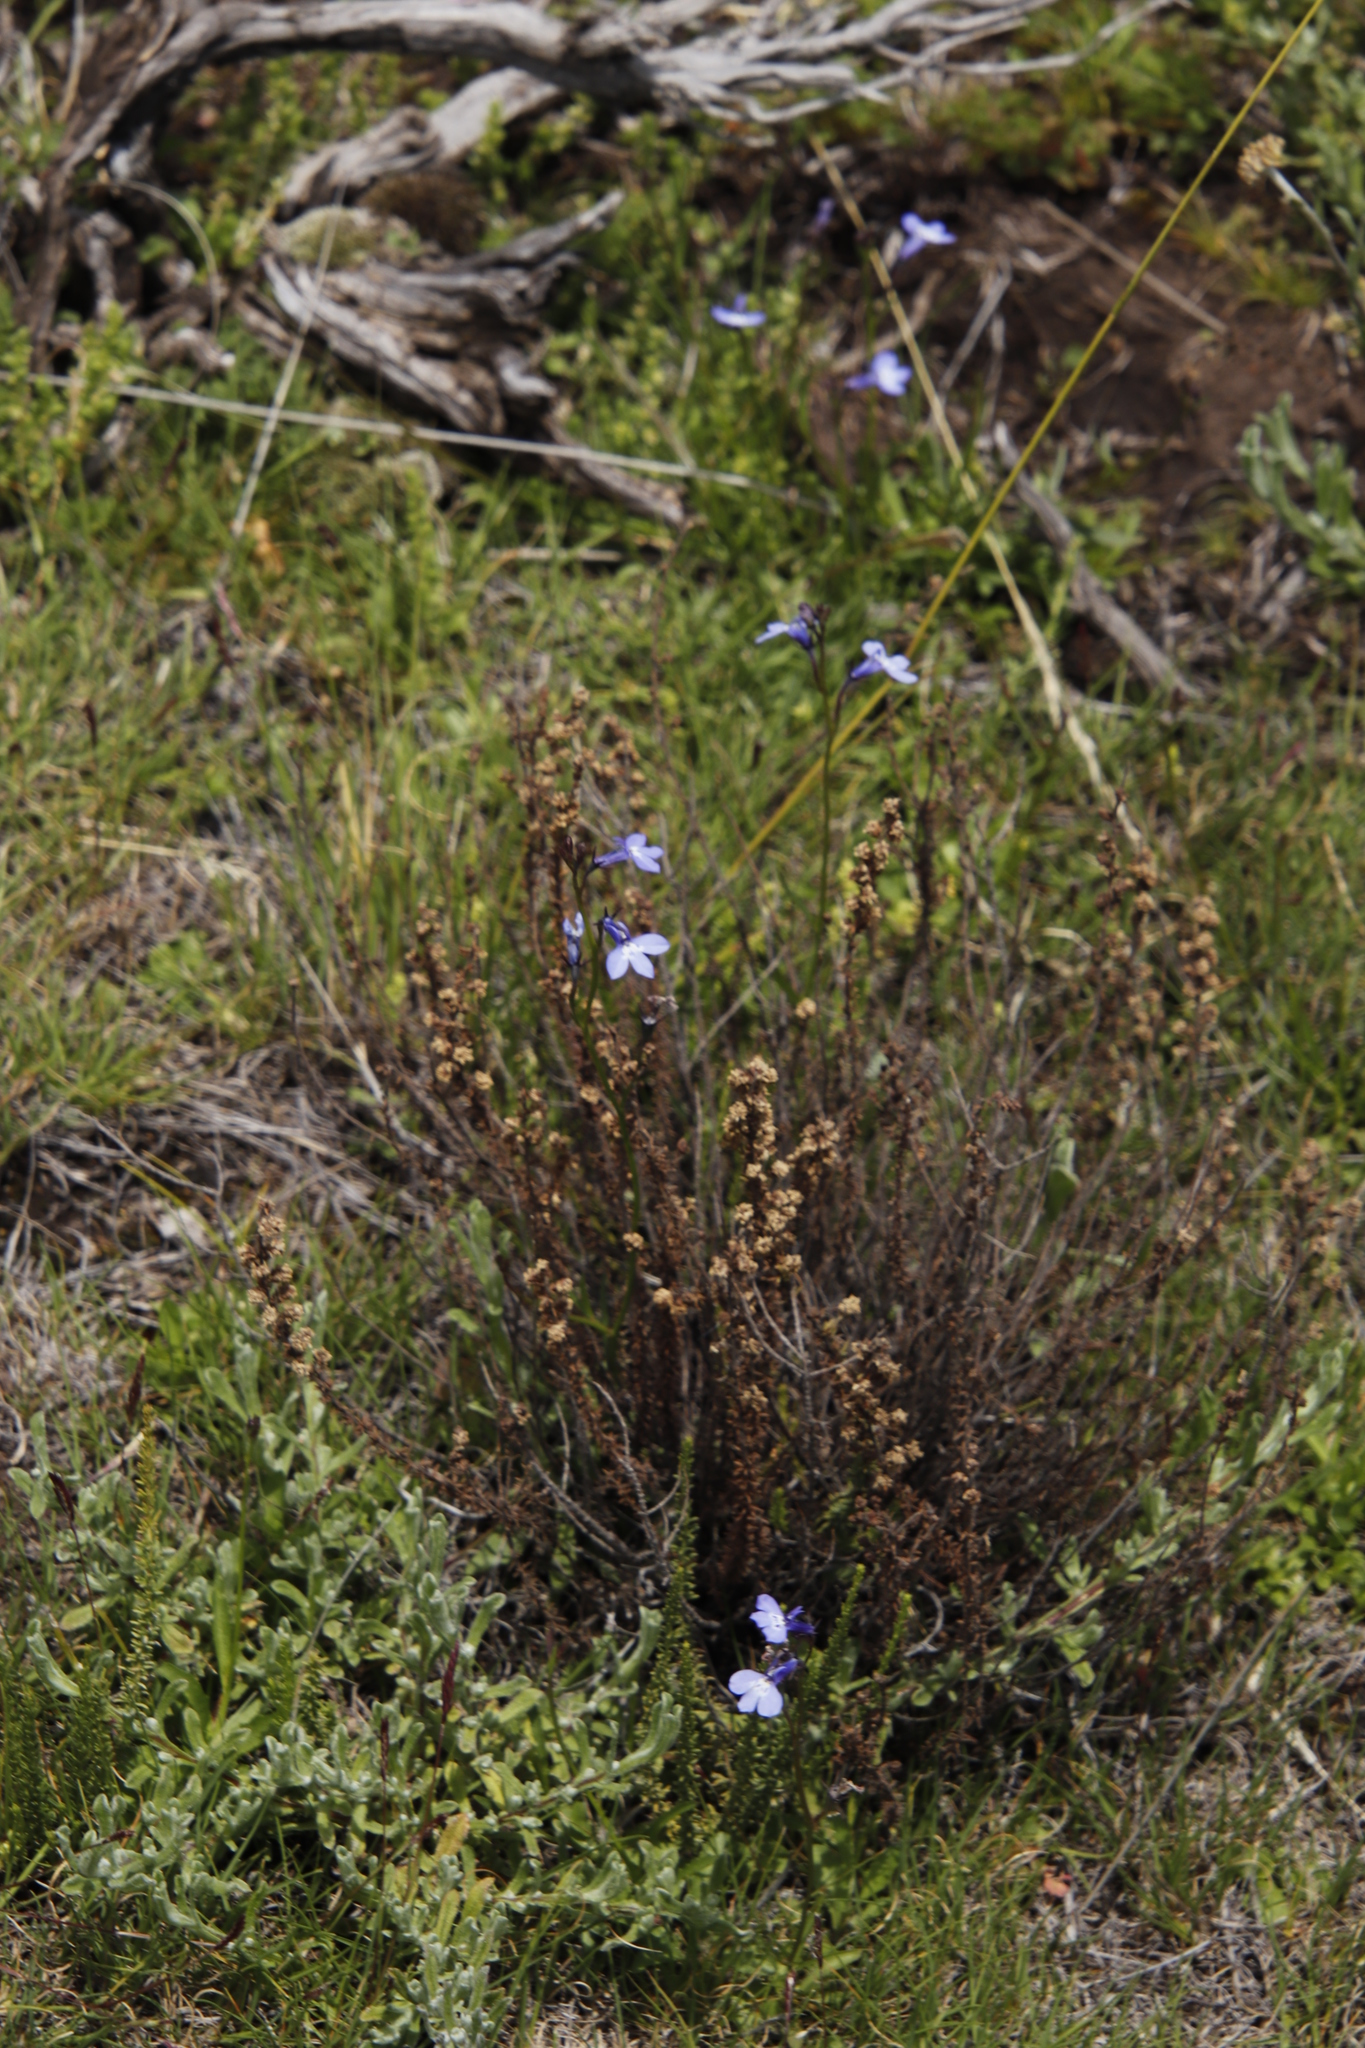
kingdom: Plantae
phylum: Tracheophyta
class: Magnoliopsida
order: Asterales
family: Campanulaceae
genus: Lobelia
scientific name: Lobelia flaccida
